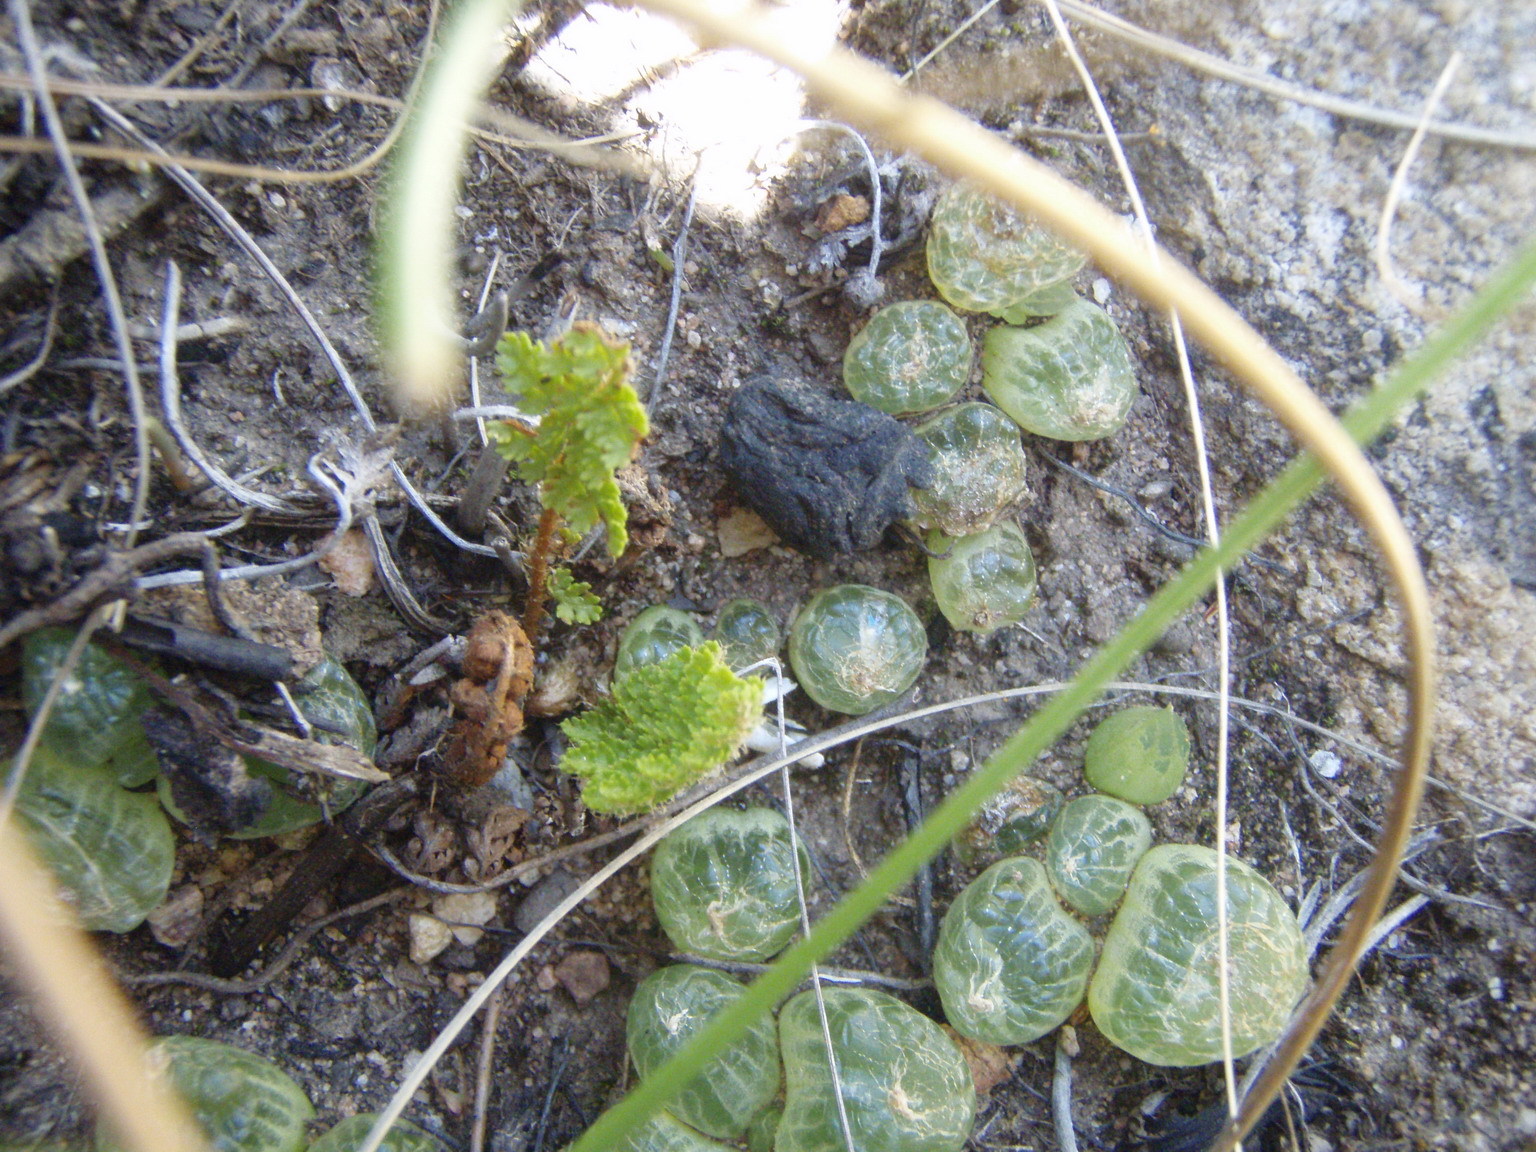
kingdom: Plantae
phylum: Tracheophyta
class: Liliopsida
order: Asparagales
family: Asphodelaceae
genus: Bulbine
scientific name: Bulbine mesembryanthoides
